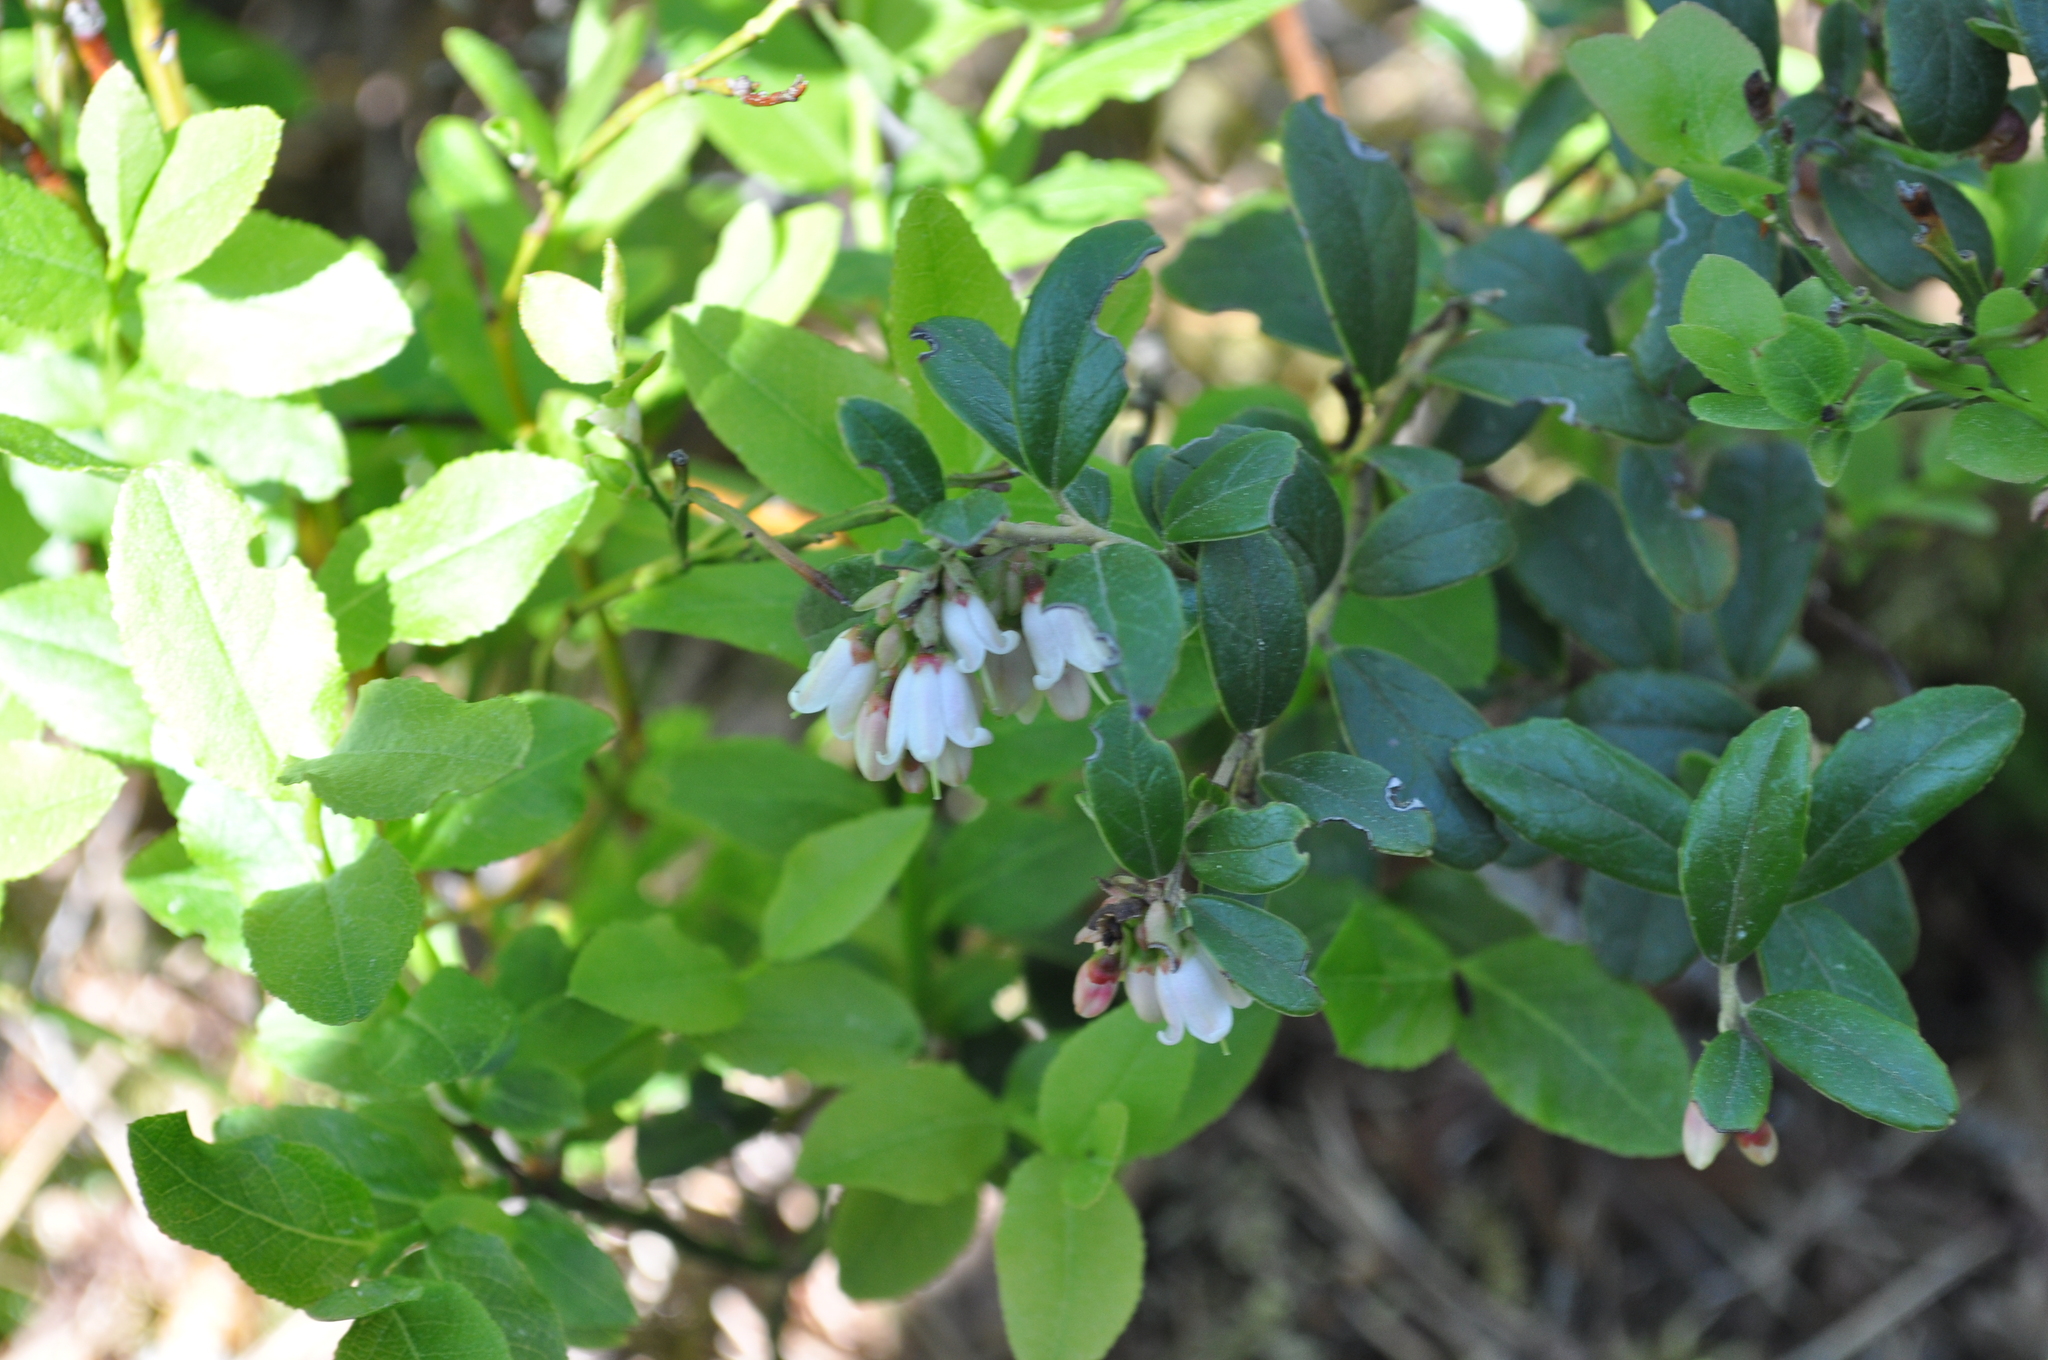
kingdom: Plantae
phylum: Tracheophyta
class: Magnoliopsida
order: Ericales
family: Ericaceae
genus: Vaccinium
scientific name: Vaccinium vitis-idaea
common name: Cowberry
